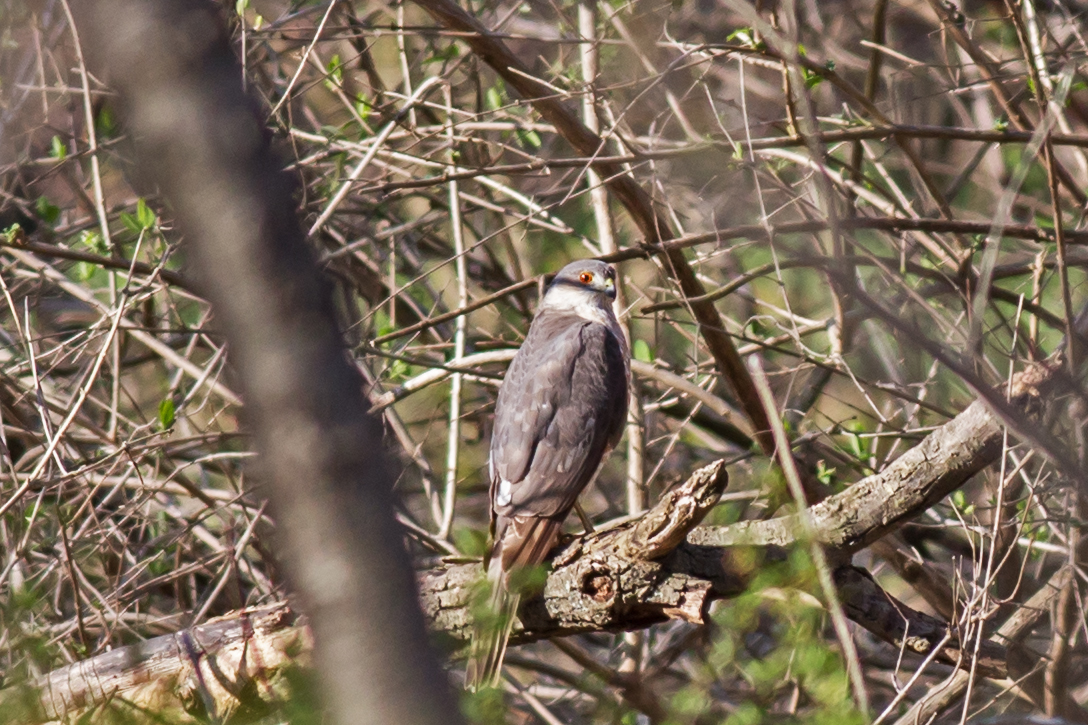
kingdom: Animalia
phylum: Chordata
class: Aves
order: Accipitriformes
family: Accipitridae
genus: Accipiter
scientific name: Accipiter cooperii
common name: Cooper's hawk
